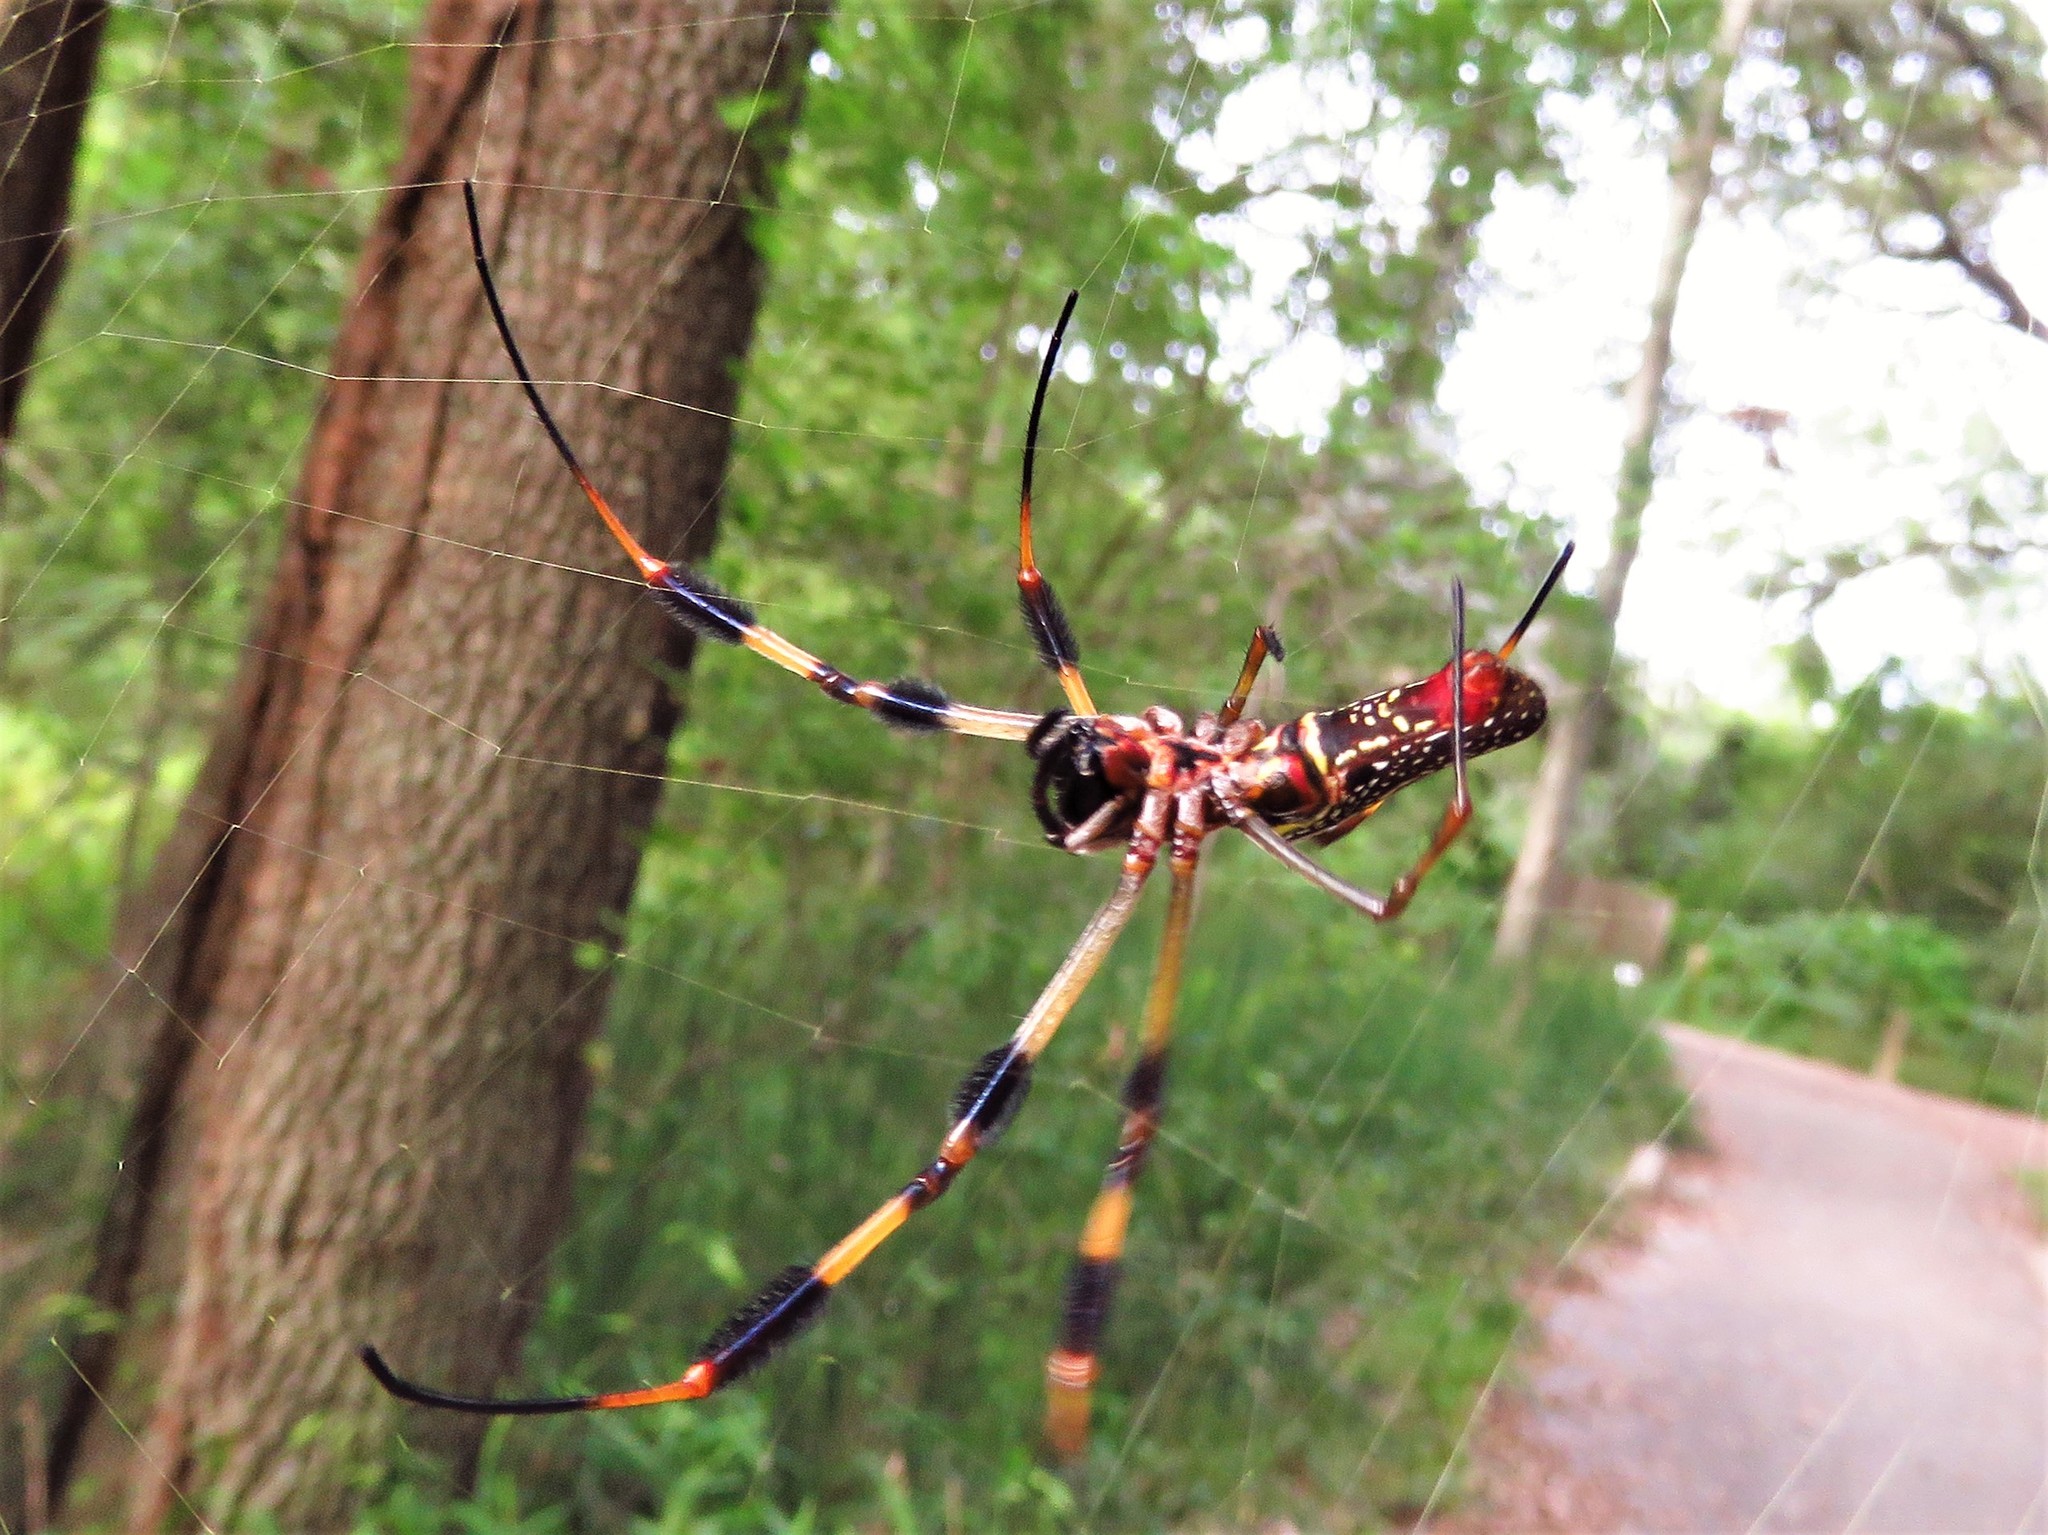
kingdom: Animalia
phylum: Arthropoda
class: Arachnida
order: Araneae
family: Araneidae
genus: Trichonephila
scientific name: Trichonephila clavipes
